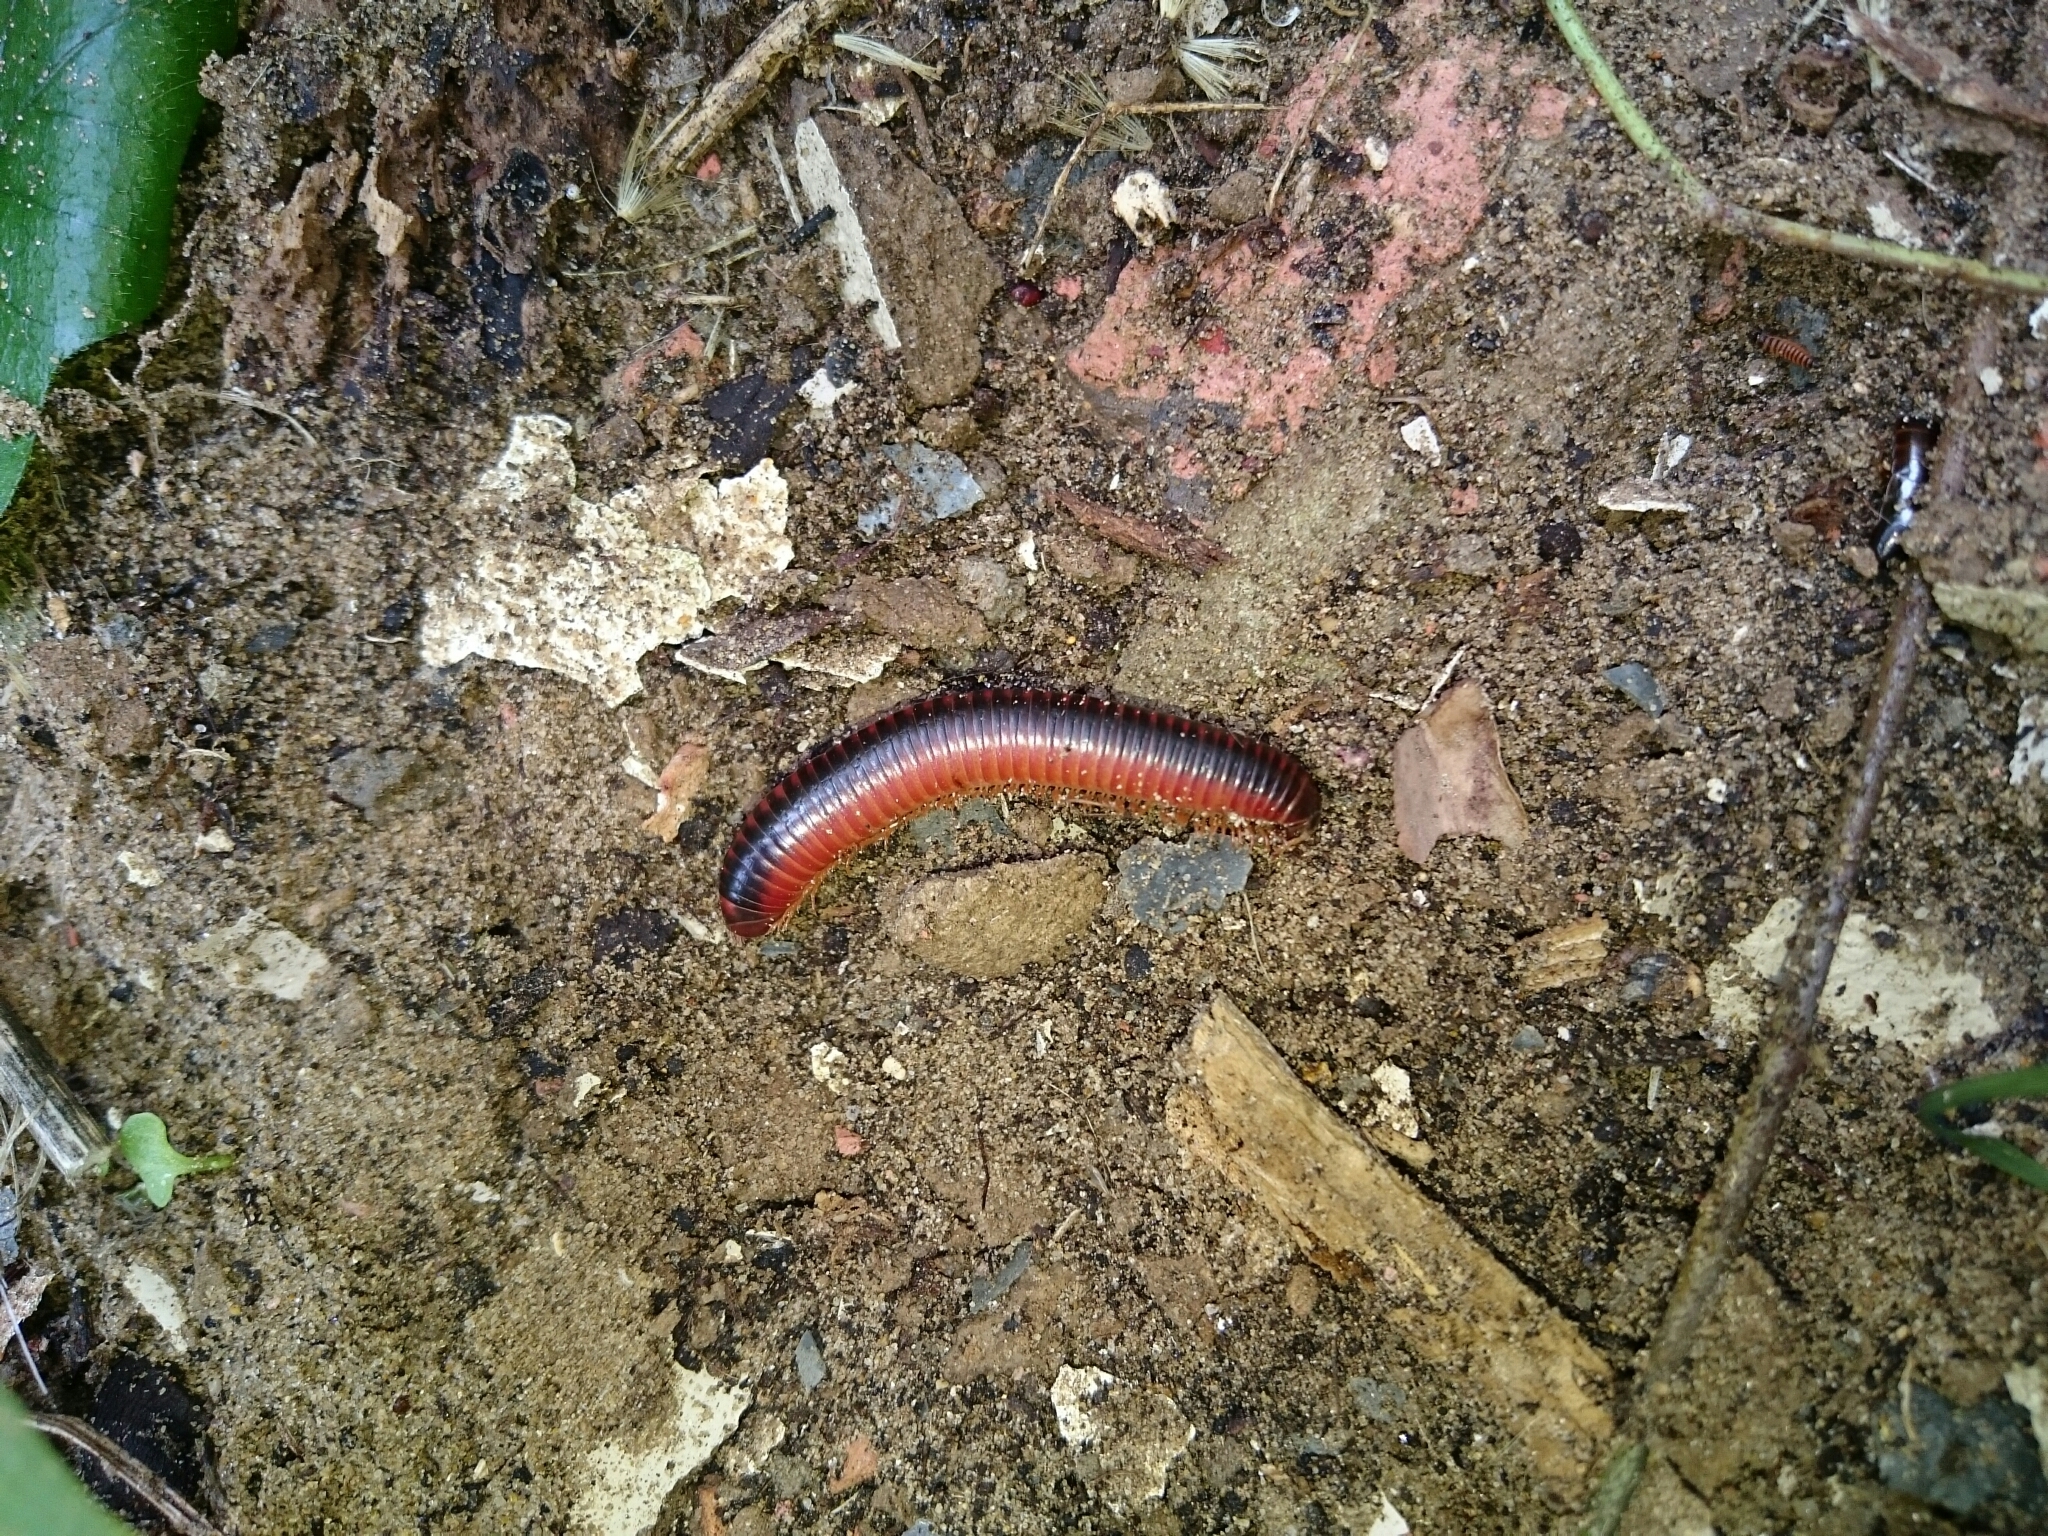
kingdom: Animalia
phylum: Arthropoda
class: Diplopoda
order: Spirobolida
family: Pachybolidae
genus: Centrobolus
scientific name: Centrobolus lugubris
